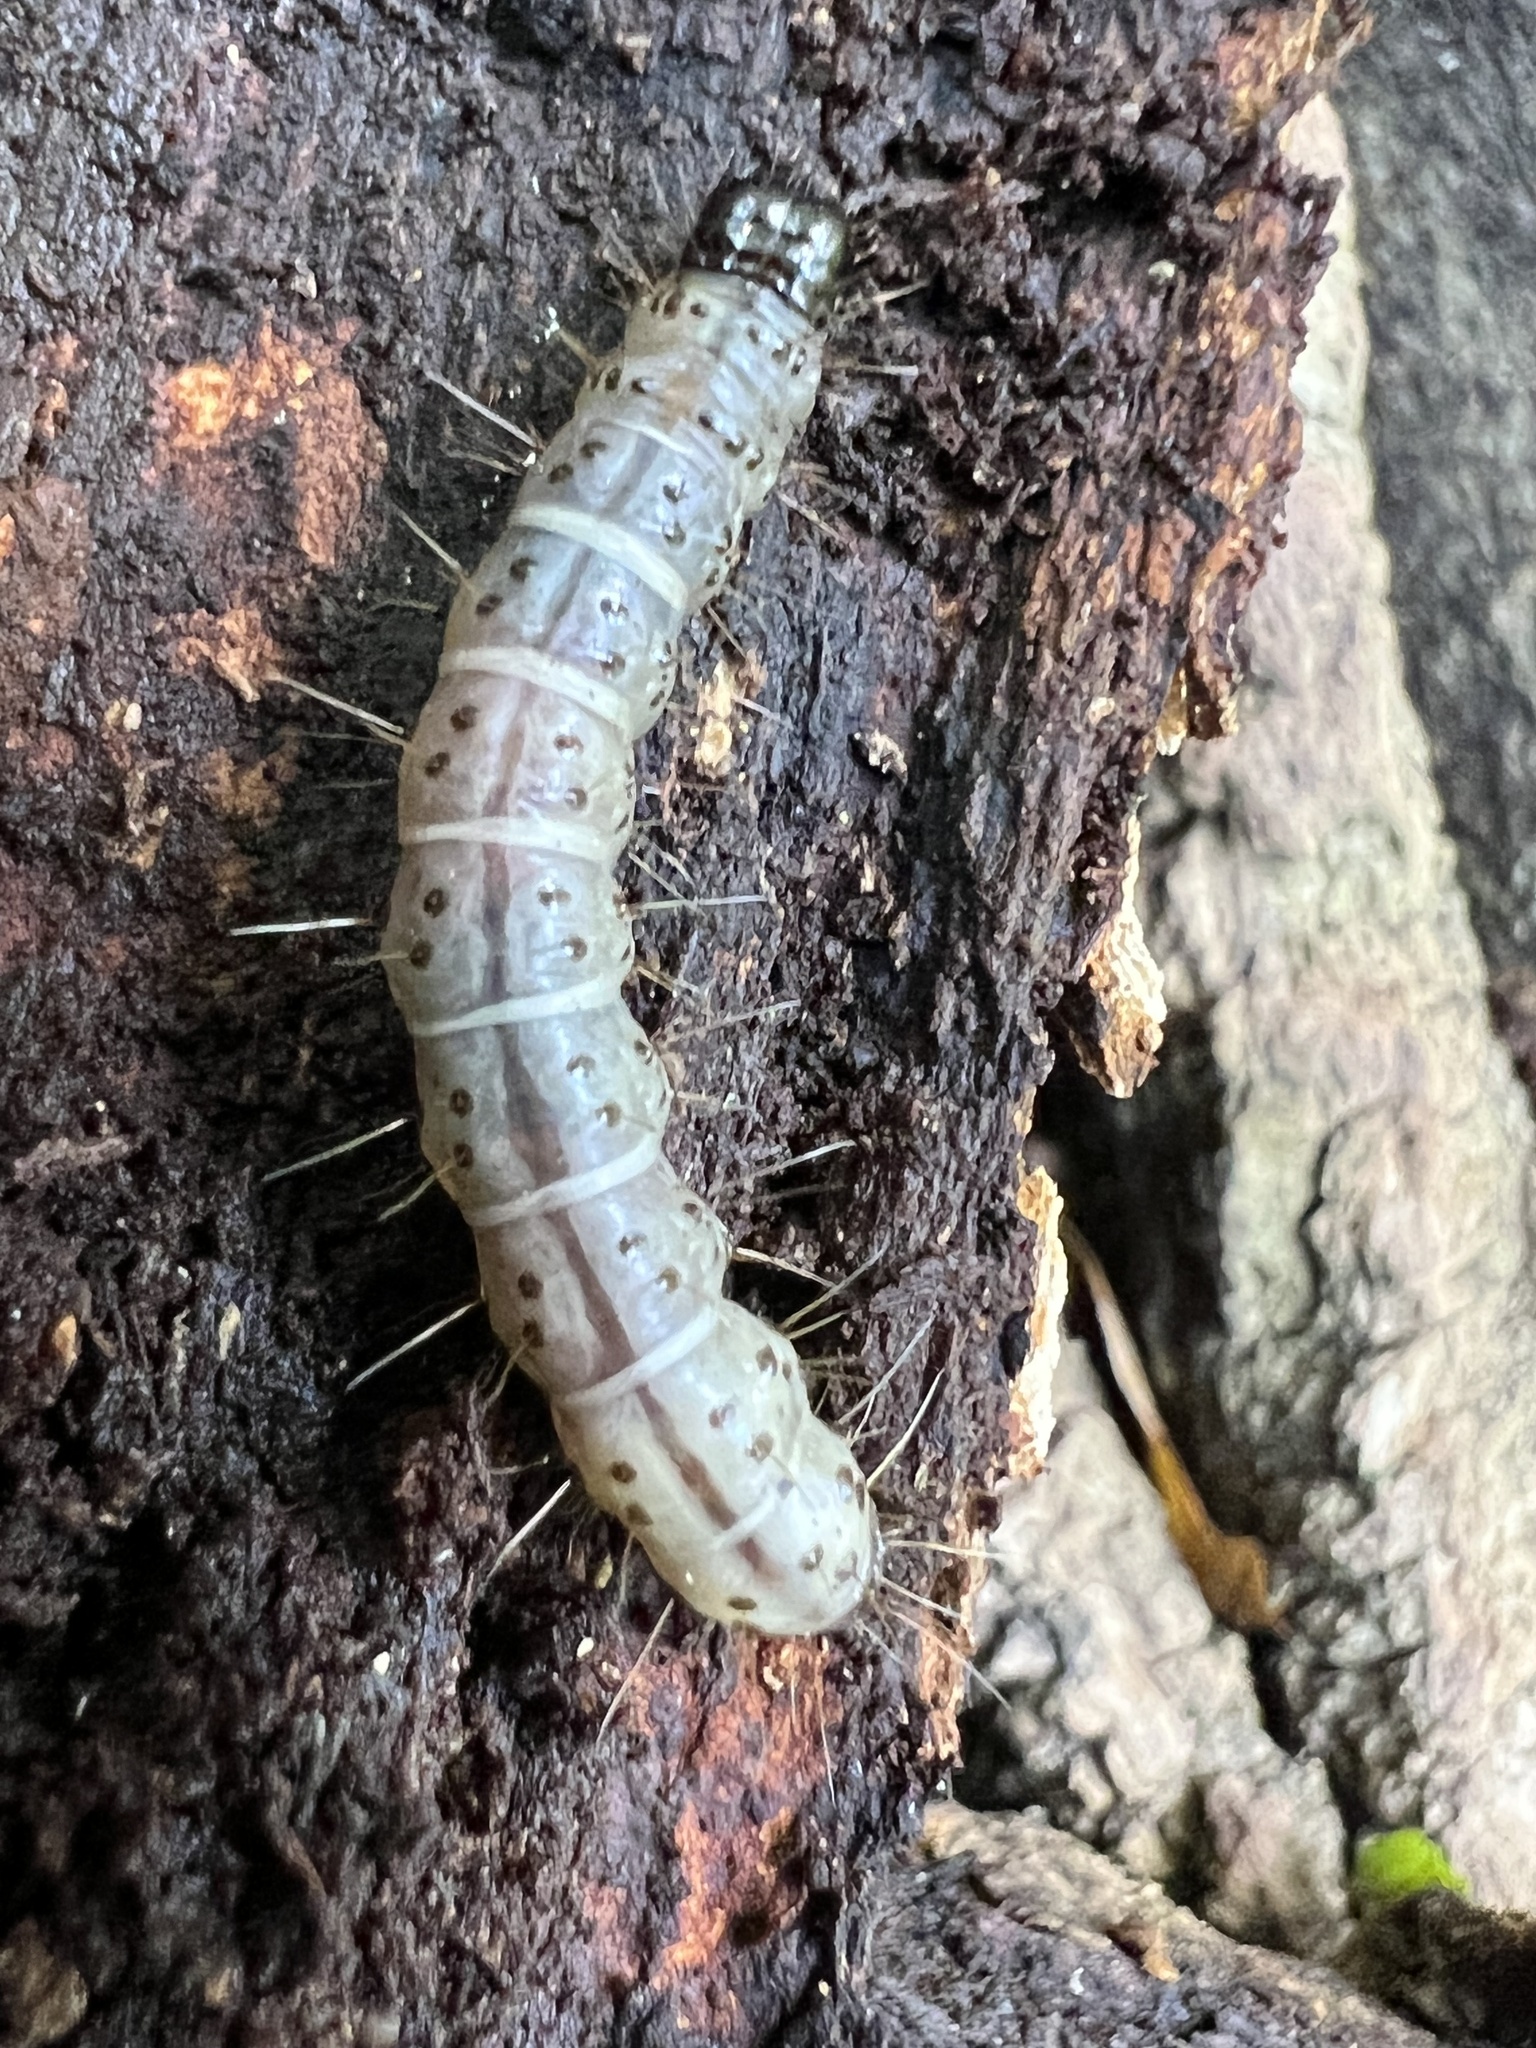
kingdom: Animalia
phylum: Arthropoda
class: Insecta
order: Lepidoptera
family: Erebidae
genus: Scolecocampa
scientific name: Scolecocampa liburna
